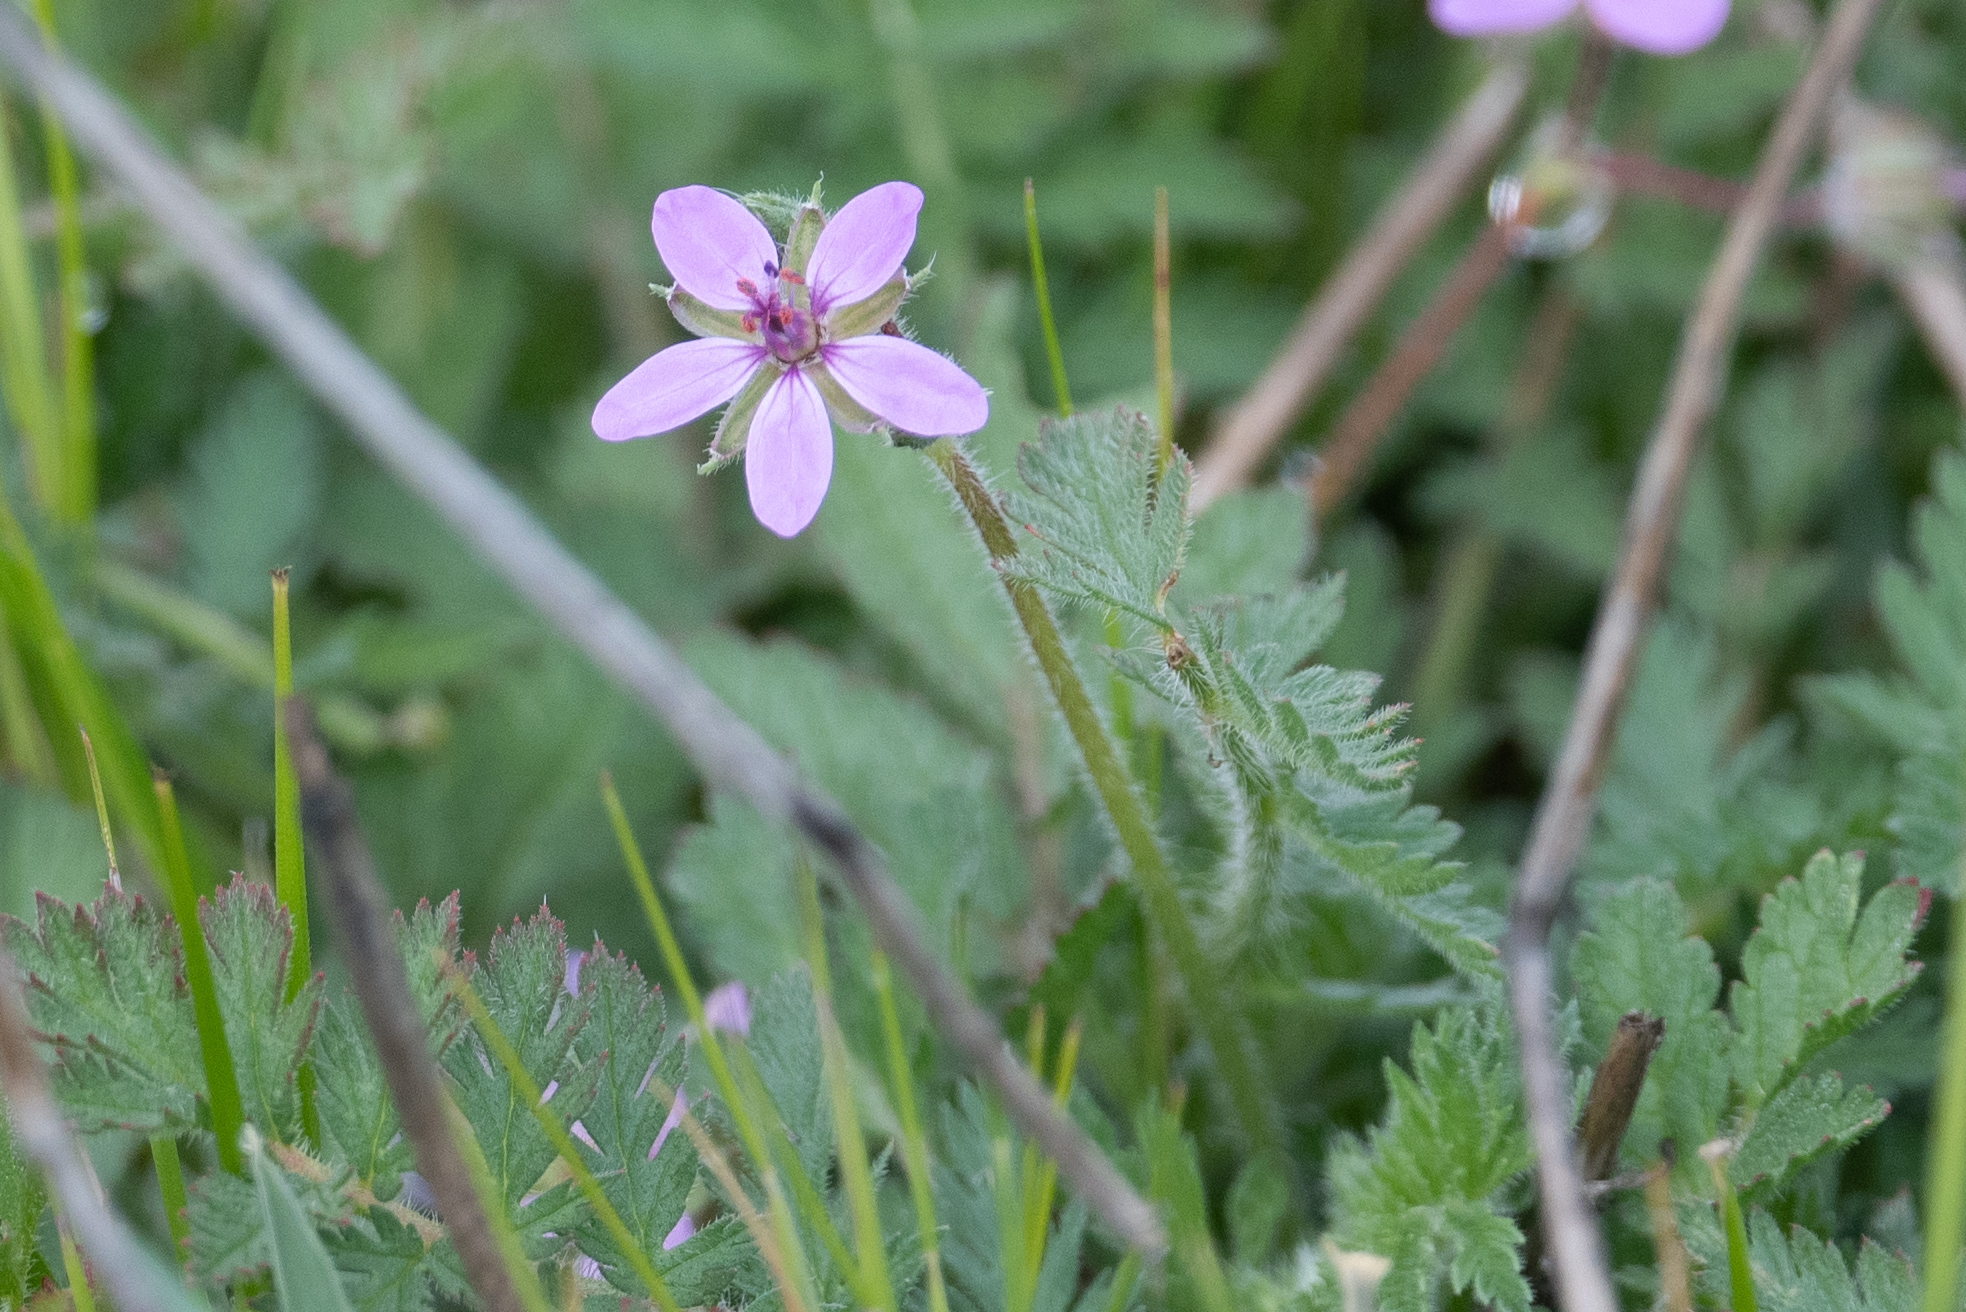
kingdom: Plantae
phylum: Tracheophyta
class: Magnoliopsida
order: Geraniales
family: Geraniaceae
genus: Erodium
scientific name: Erodium cicutarium
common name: Common stork's-bill
